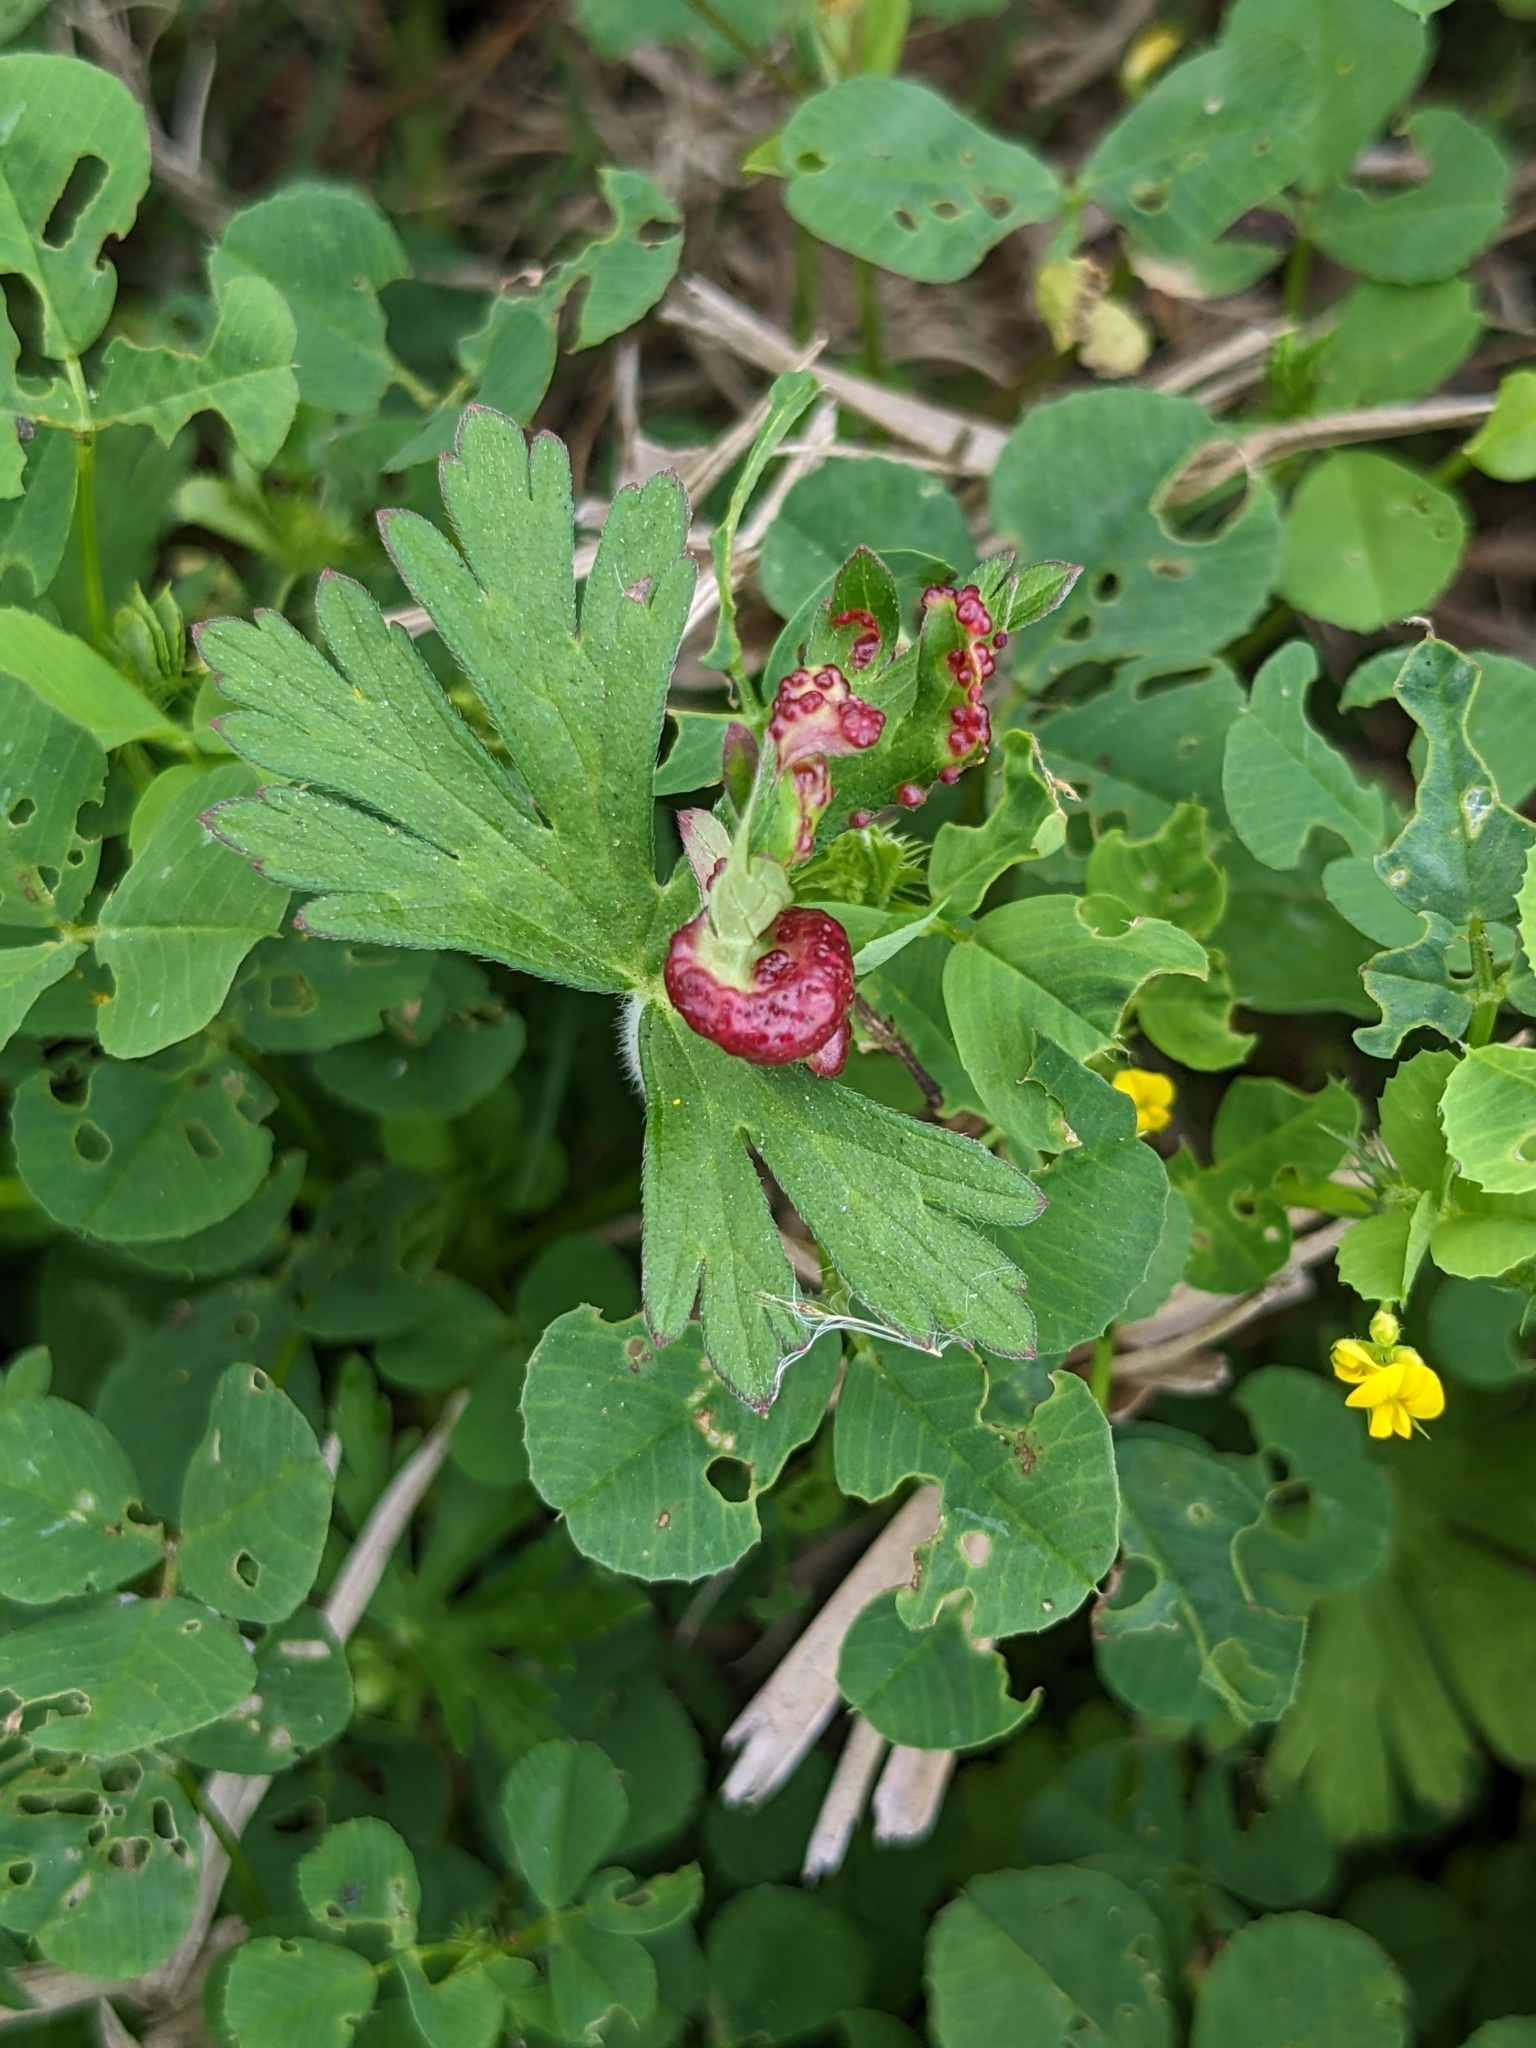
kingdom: Fungi
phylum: Chytridiomycota
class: Chytridiomycetes
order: Chytridiales
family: Synchytriaceae
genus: Synchytrium
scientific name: Synchytrium geranii
